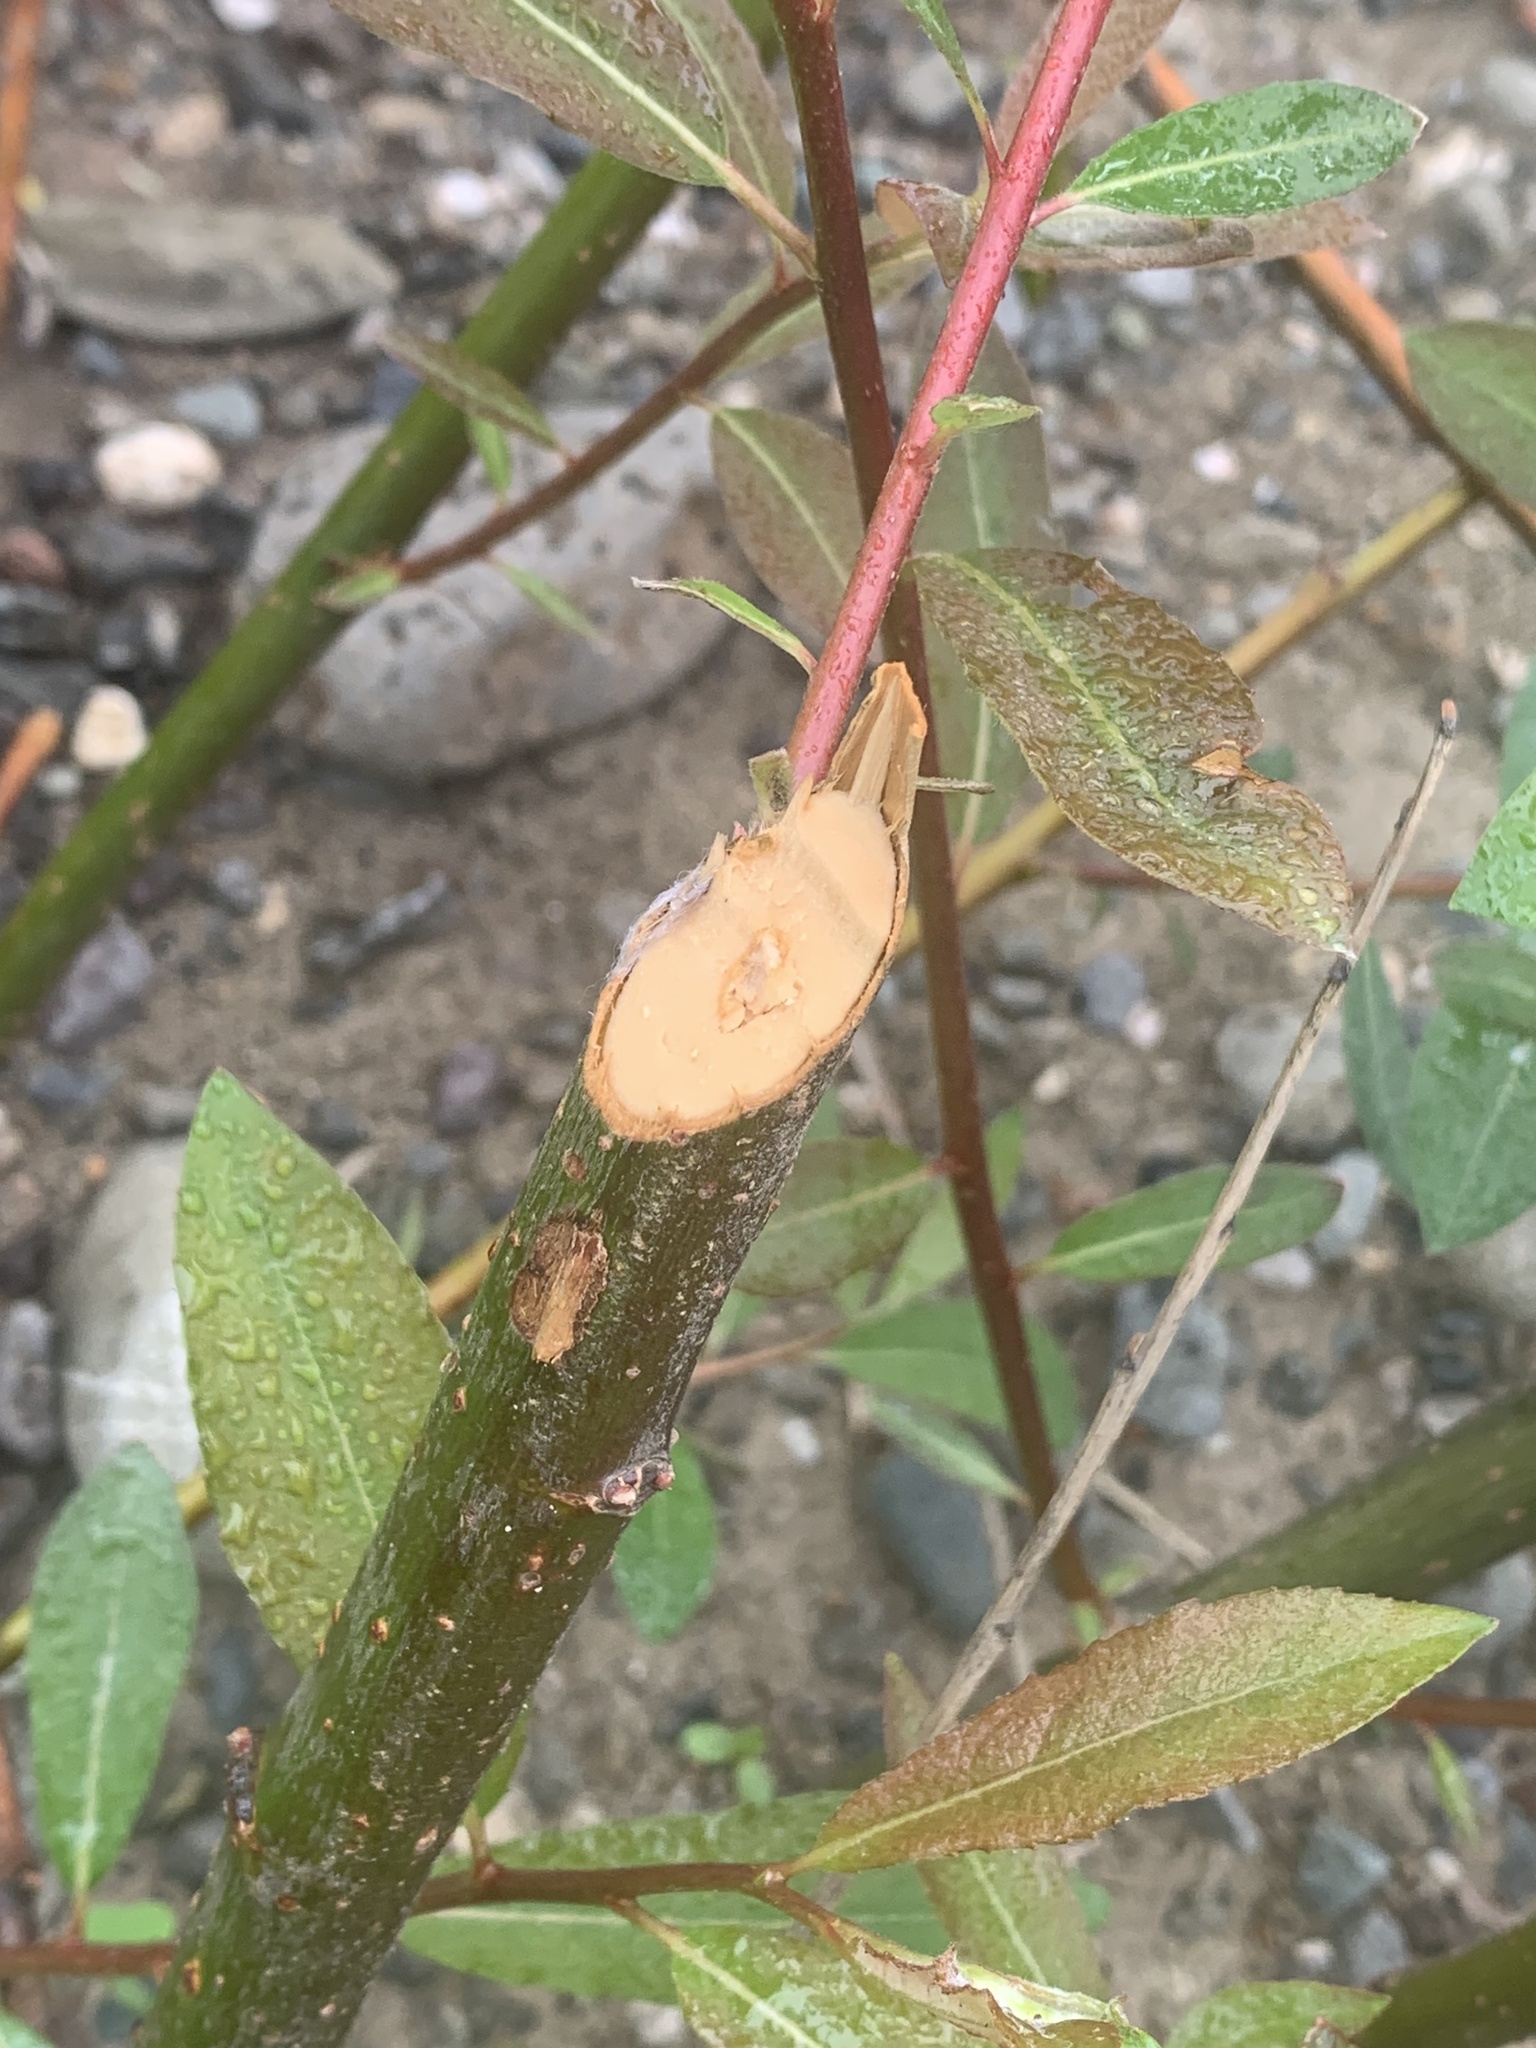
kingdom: Animalia
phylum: Chordata
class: Mammalia
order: Rodentia
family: Castoridae
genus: Castor
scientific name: Castor canadensis
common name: American beaver
